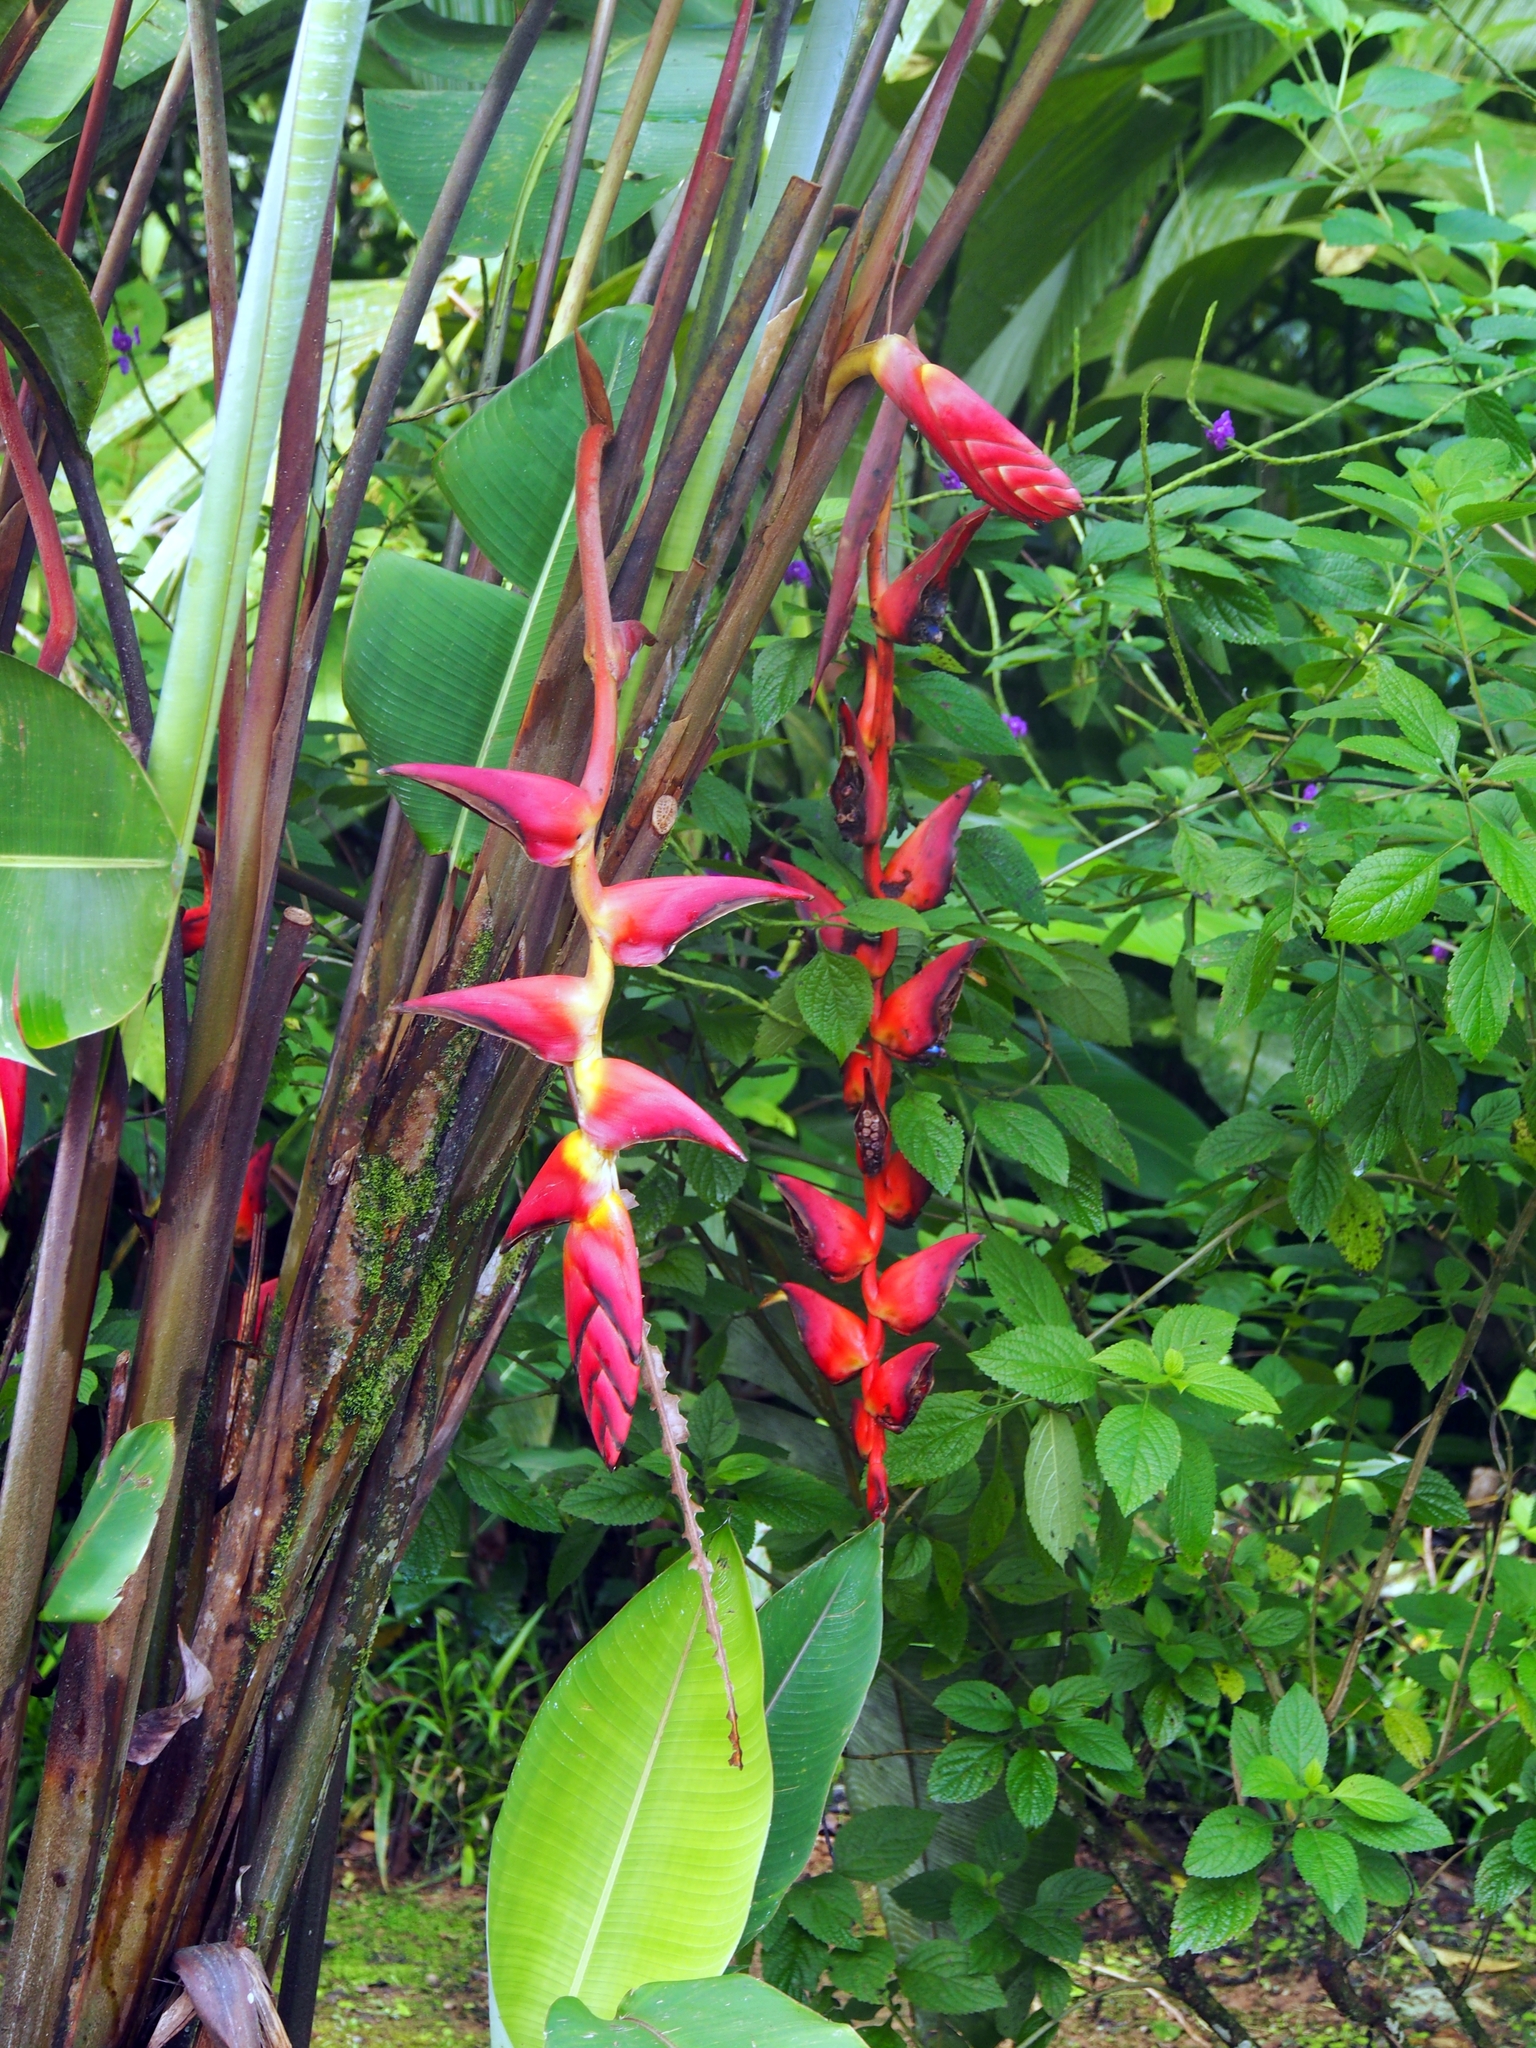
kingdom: Plantae
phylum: Tracheophyta
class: Liliopsida
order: Zingiberales
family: Heliconiaceae
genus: Heliconia
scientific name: Heliconia pogonantha
